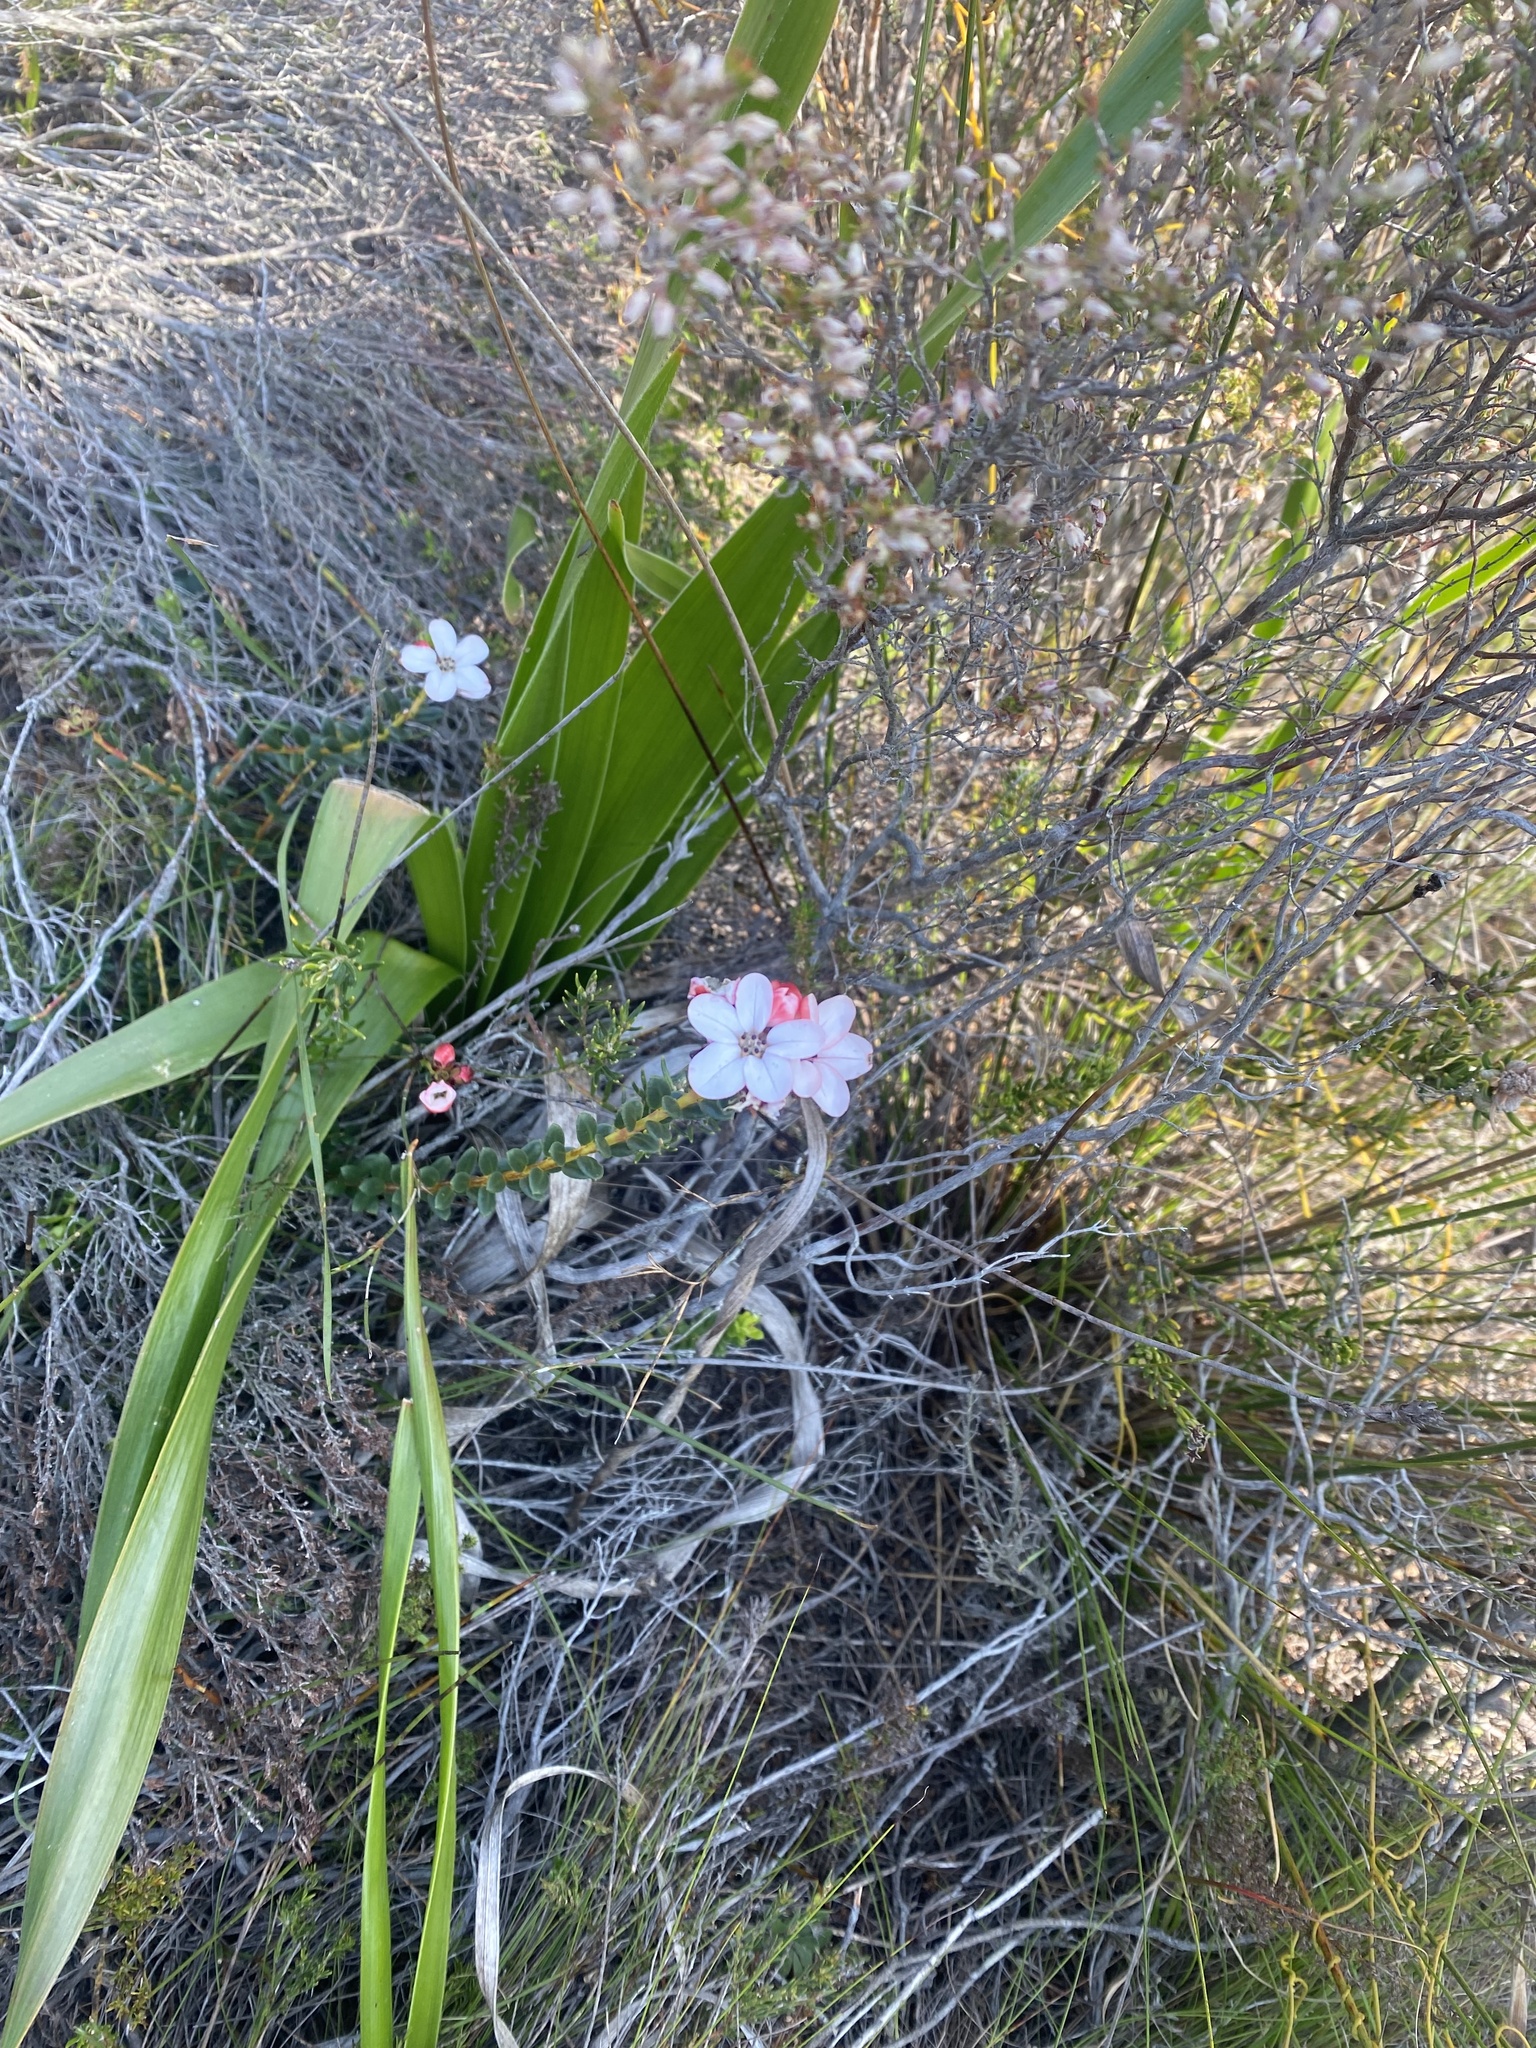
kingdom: Plantae
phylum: Tracheophyta
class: Magnoliopsida
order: Sapindales
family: Rutaceae
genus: Adenandra
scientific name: Adenandra uniflora
